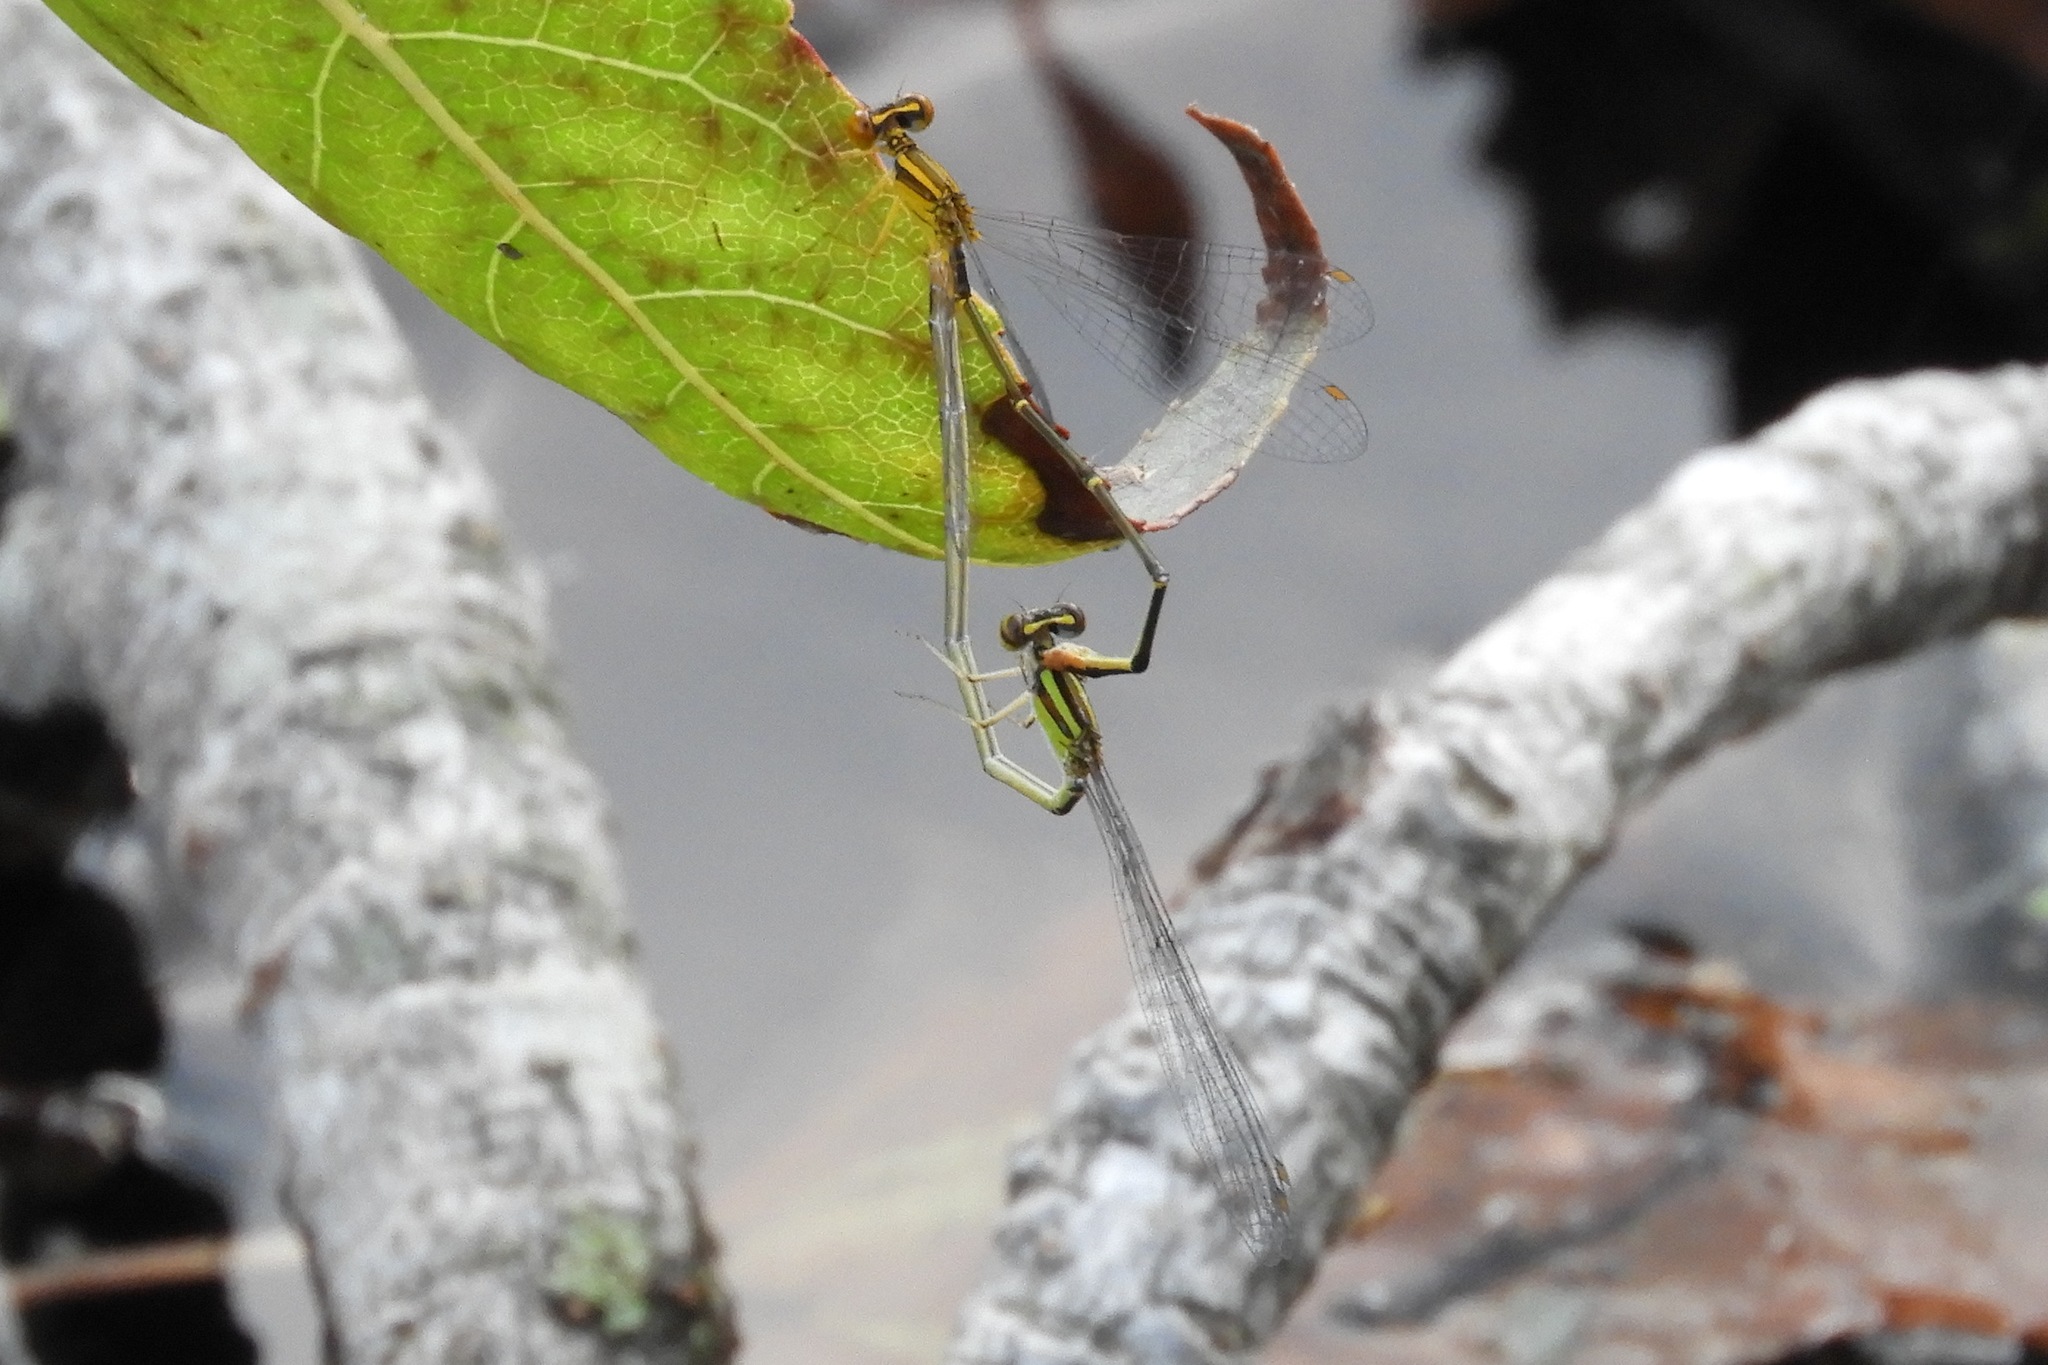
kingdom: Animalia
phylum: Arthropoda
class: Insecta
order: Odonata
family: Coenagrionidae
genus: Enallagma
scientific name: Enallagma signatum
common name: Orange bluet
